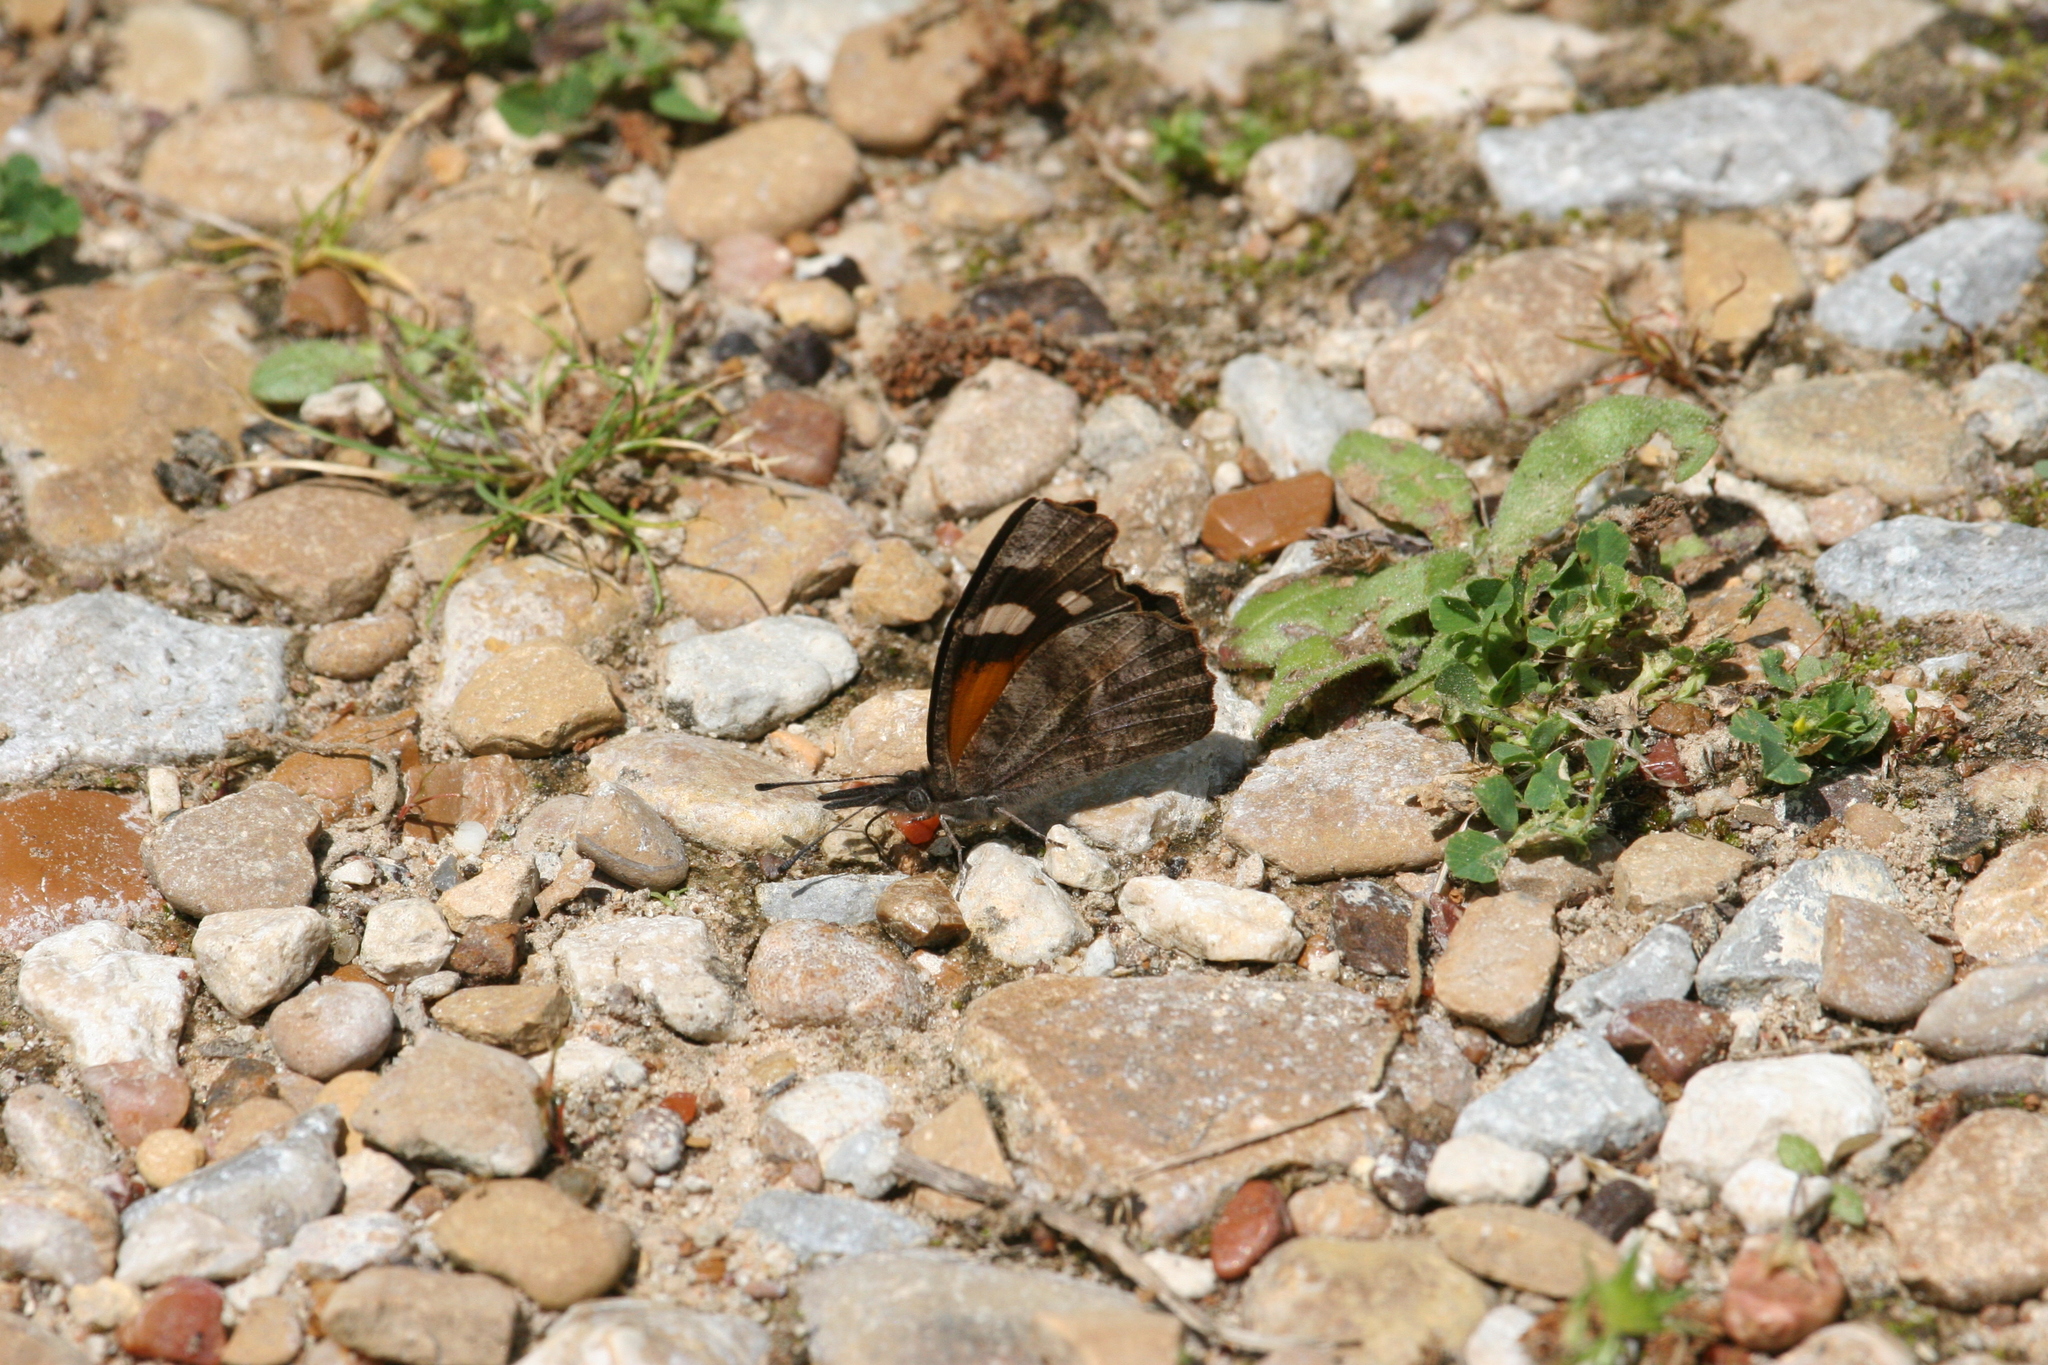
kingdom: Animalia
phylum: Arthropoda
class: Insecta
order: Lepidoptera
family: Nymphalidae
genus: Libytheana
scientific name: Libytheana carinenta
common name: American snout
